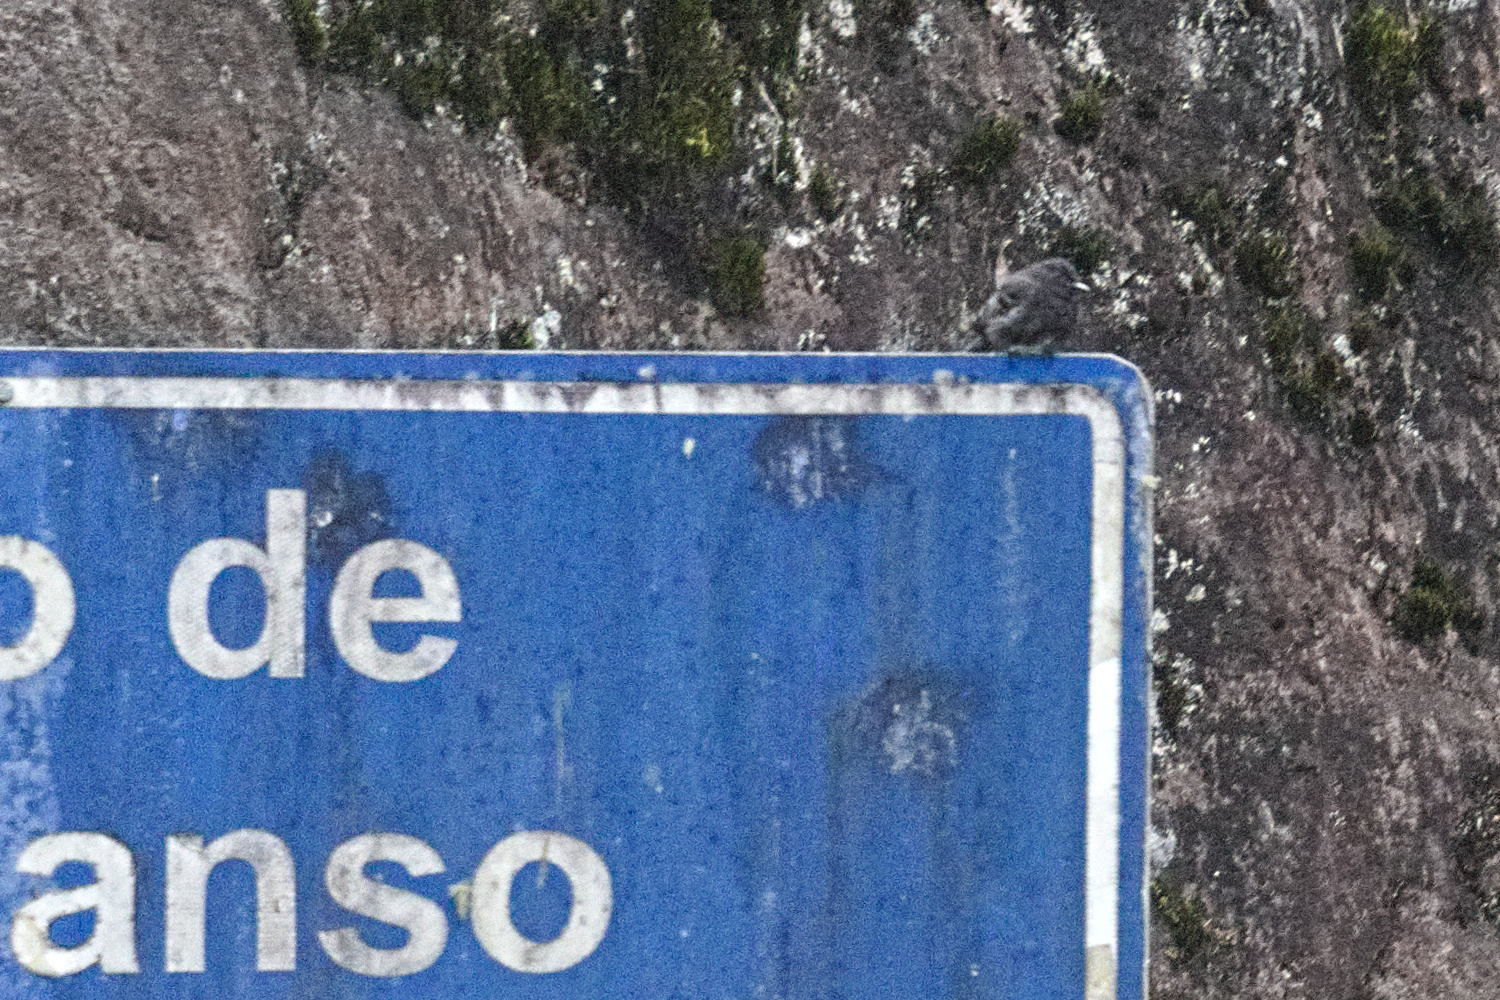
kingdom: Animalia
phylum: Chordata
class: Aves
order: Passeriformes
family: Tyrannidae
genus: Sayornis
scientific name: Sayornis nigricans
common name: Black phoebe
